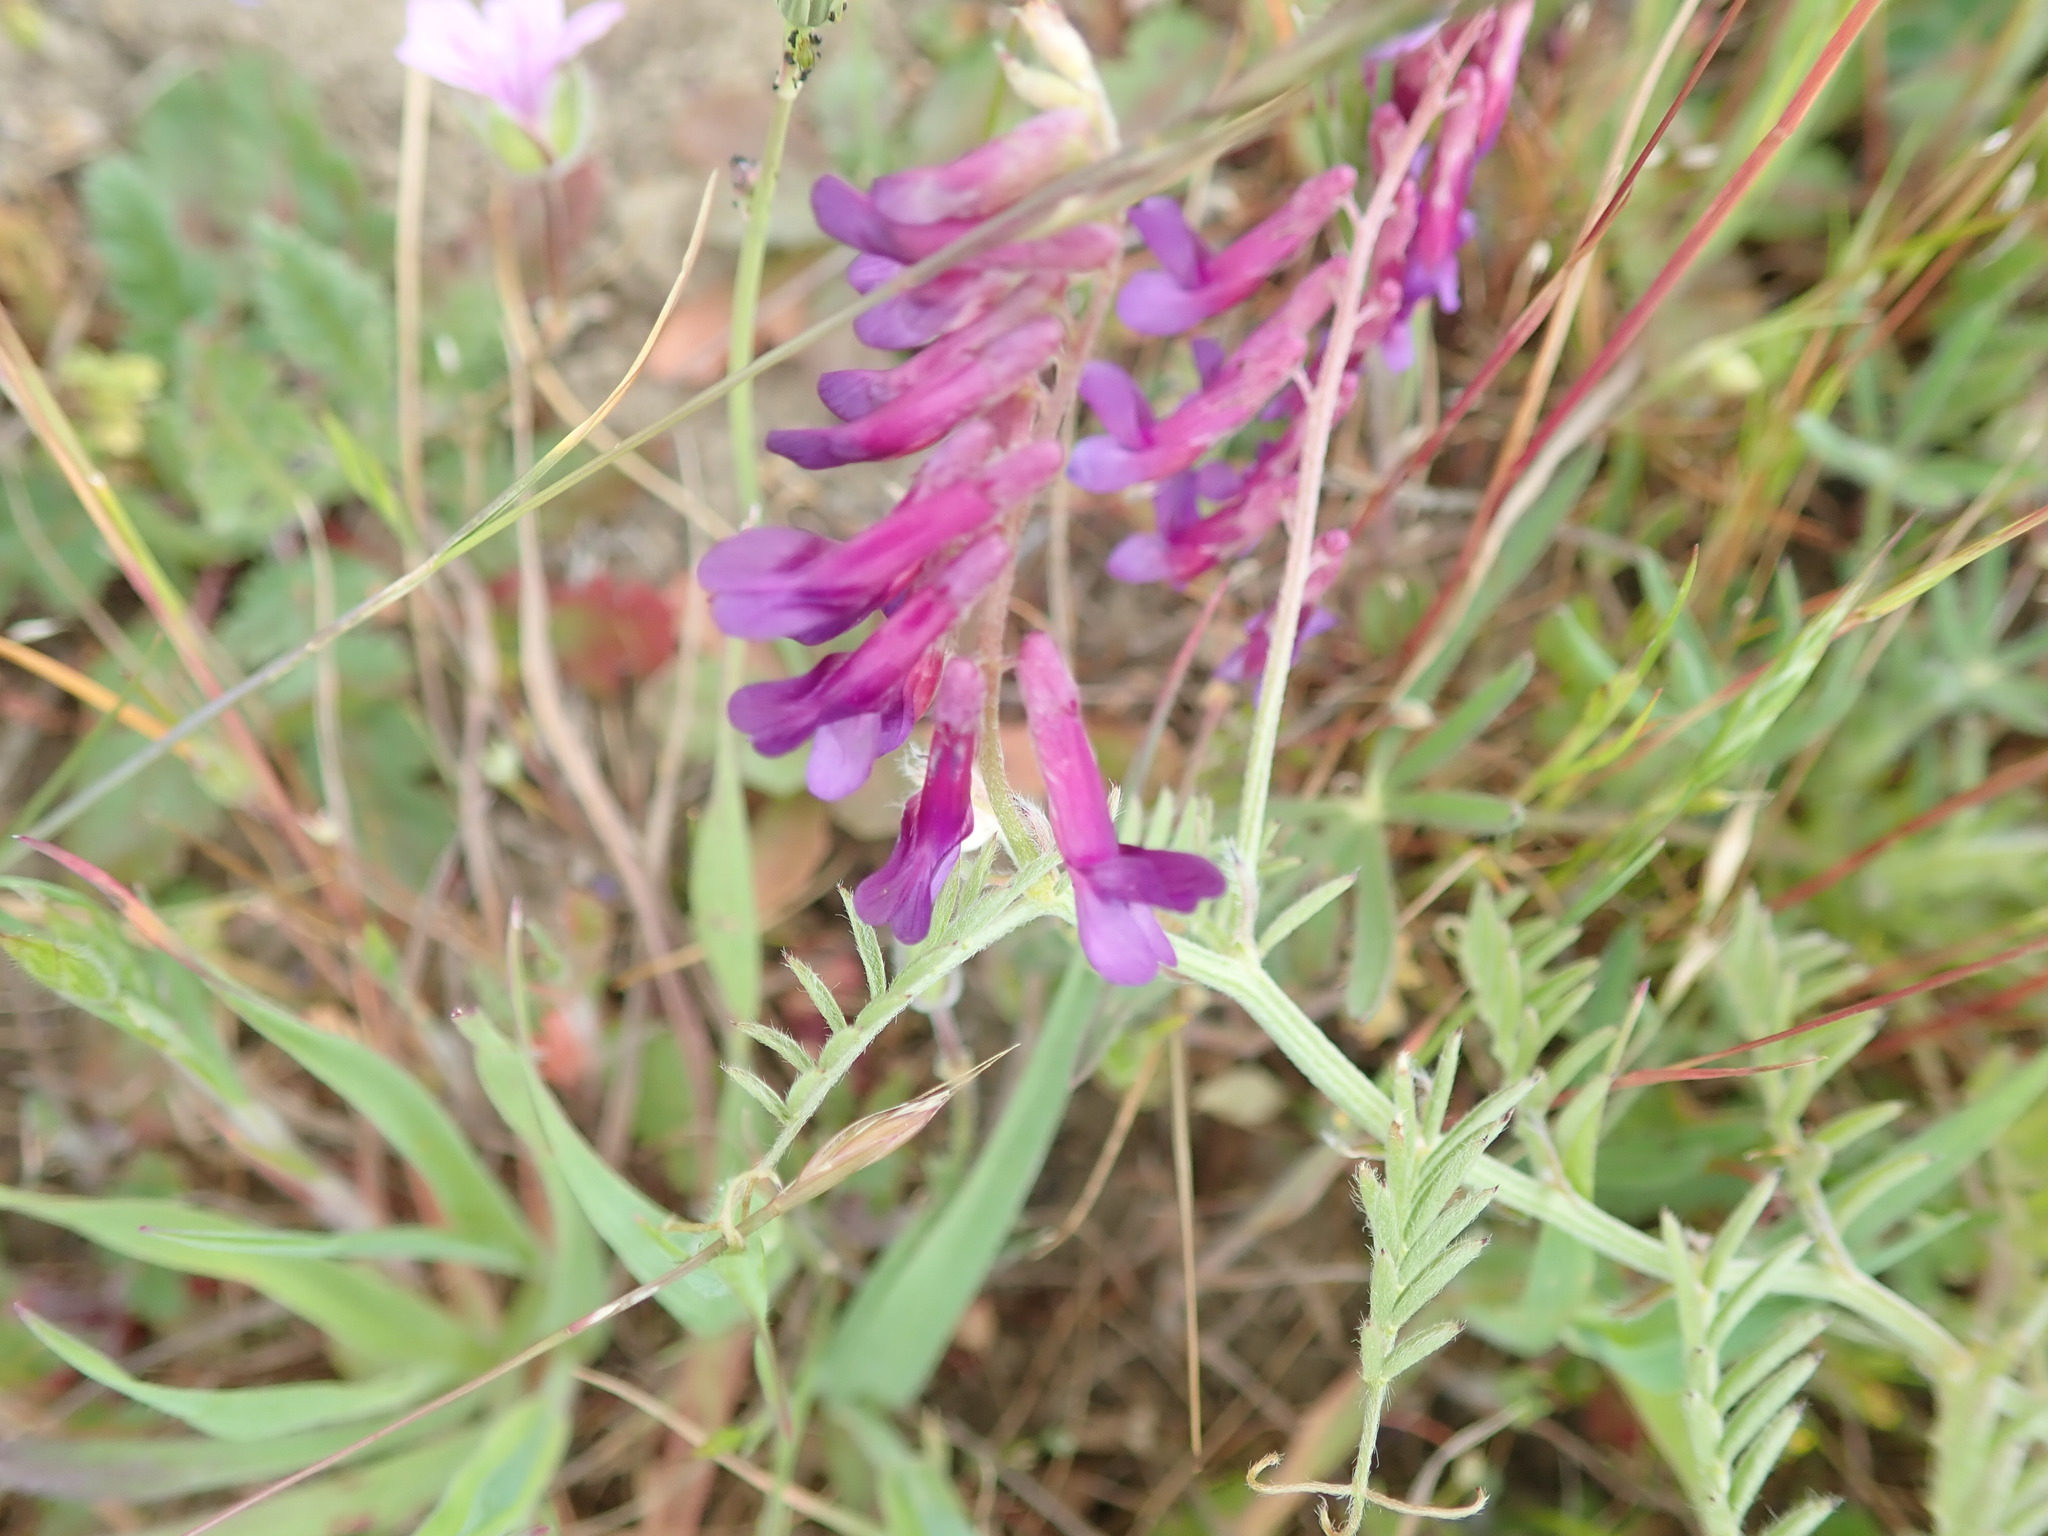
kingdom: Plantae
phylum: Tracheophyta
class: Magnoliopsida
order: Fabales
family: Fabaceae
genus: Vicia
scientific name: Vicia villosa
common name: Fodder vetch
